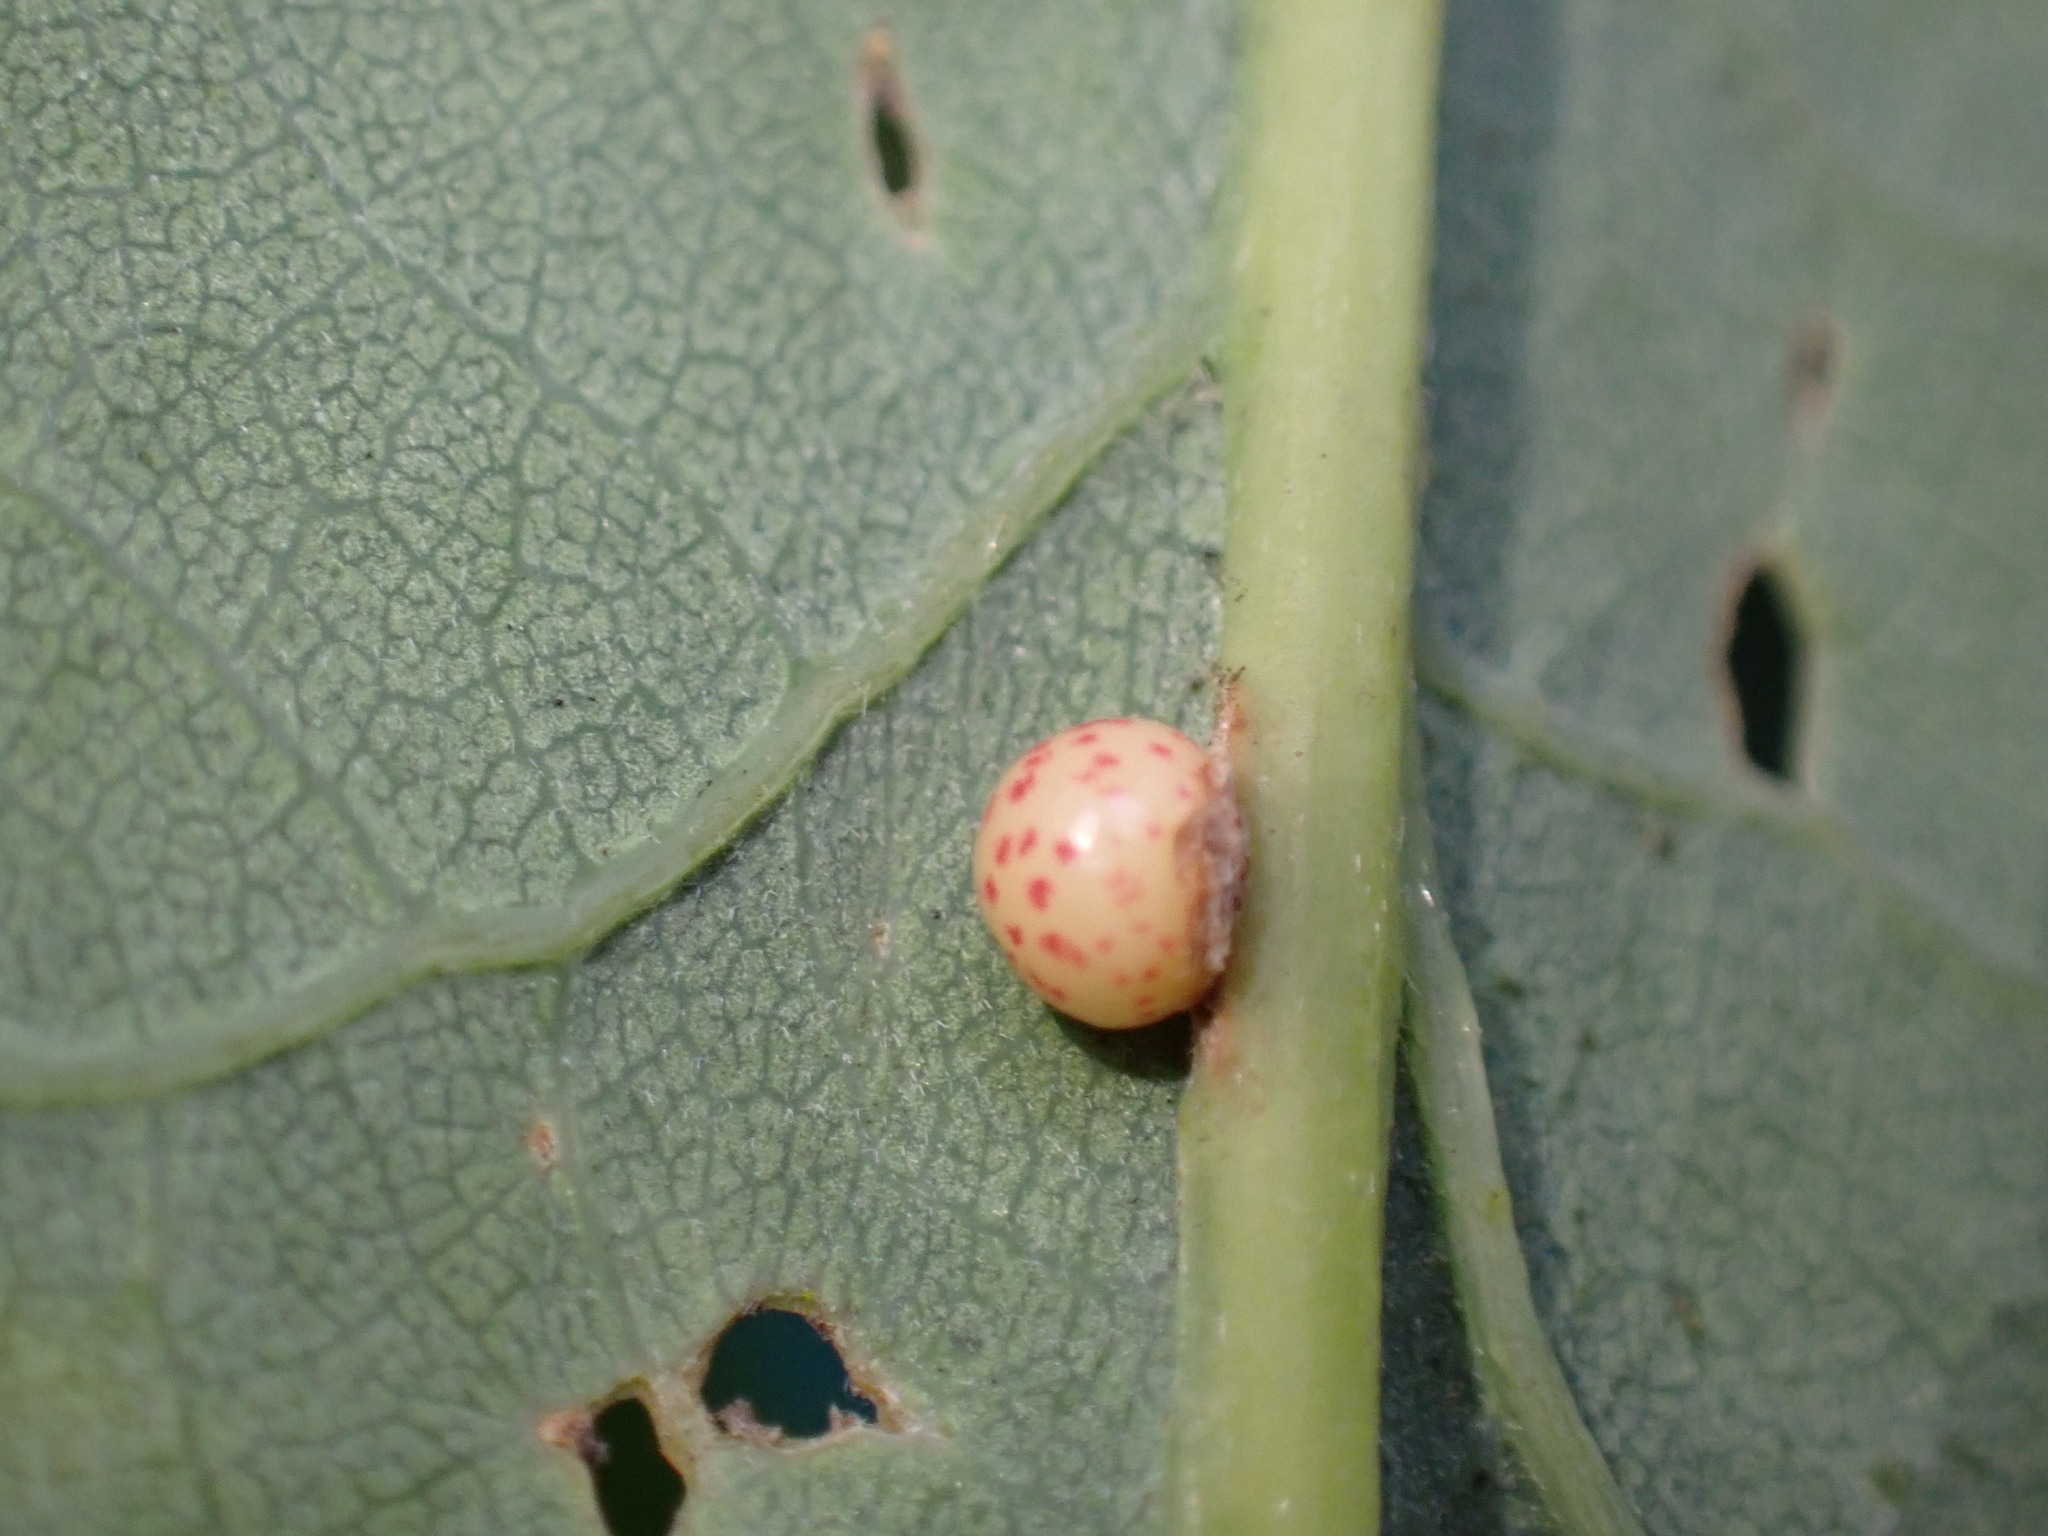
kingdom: Animalia
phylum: Arthropoda
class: Insecta
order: Hymenoptera
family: Cynipidae
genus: Neuroterus
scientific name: Neuroterus anthracinus
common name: Oyster gall
